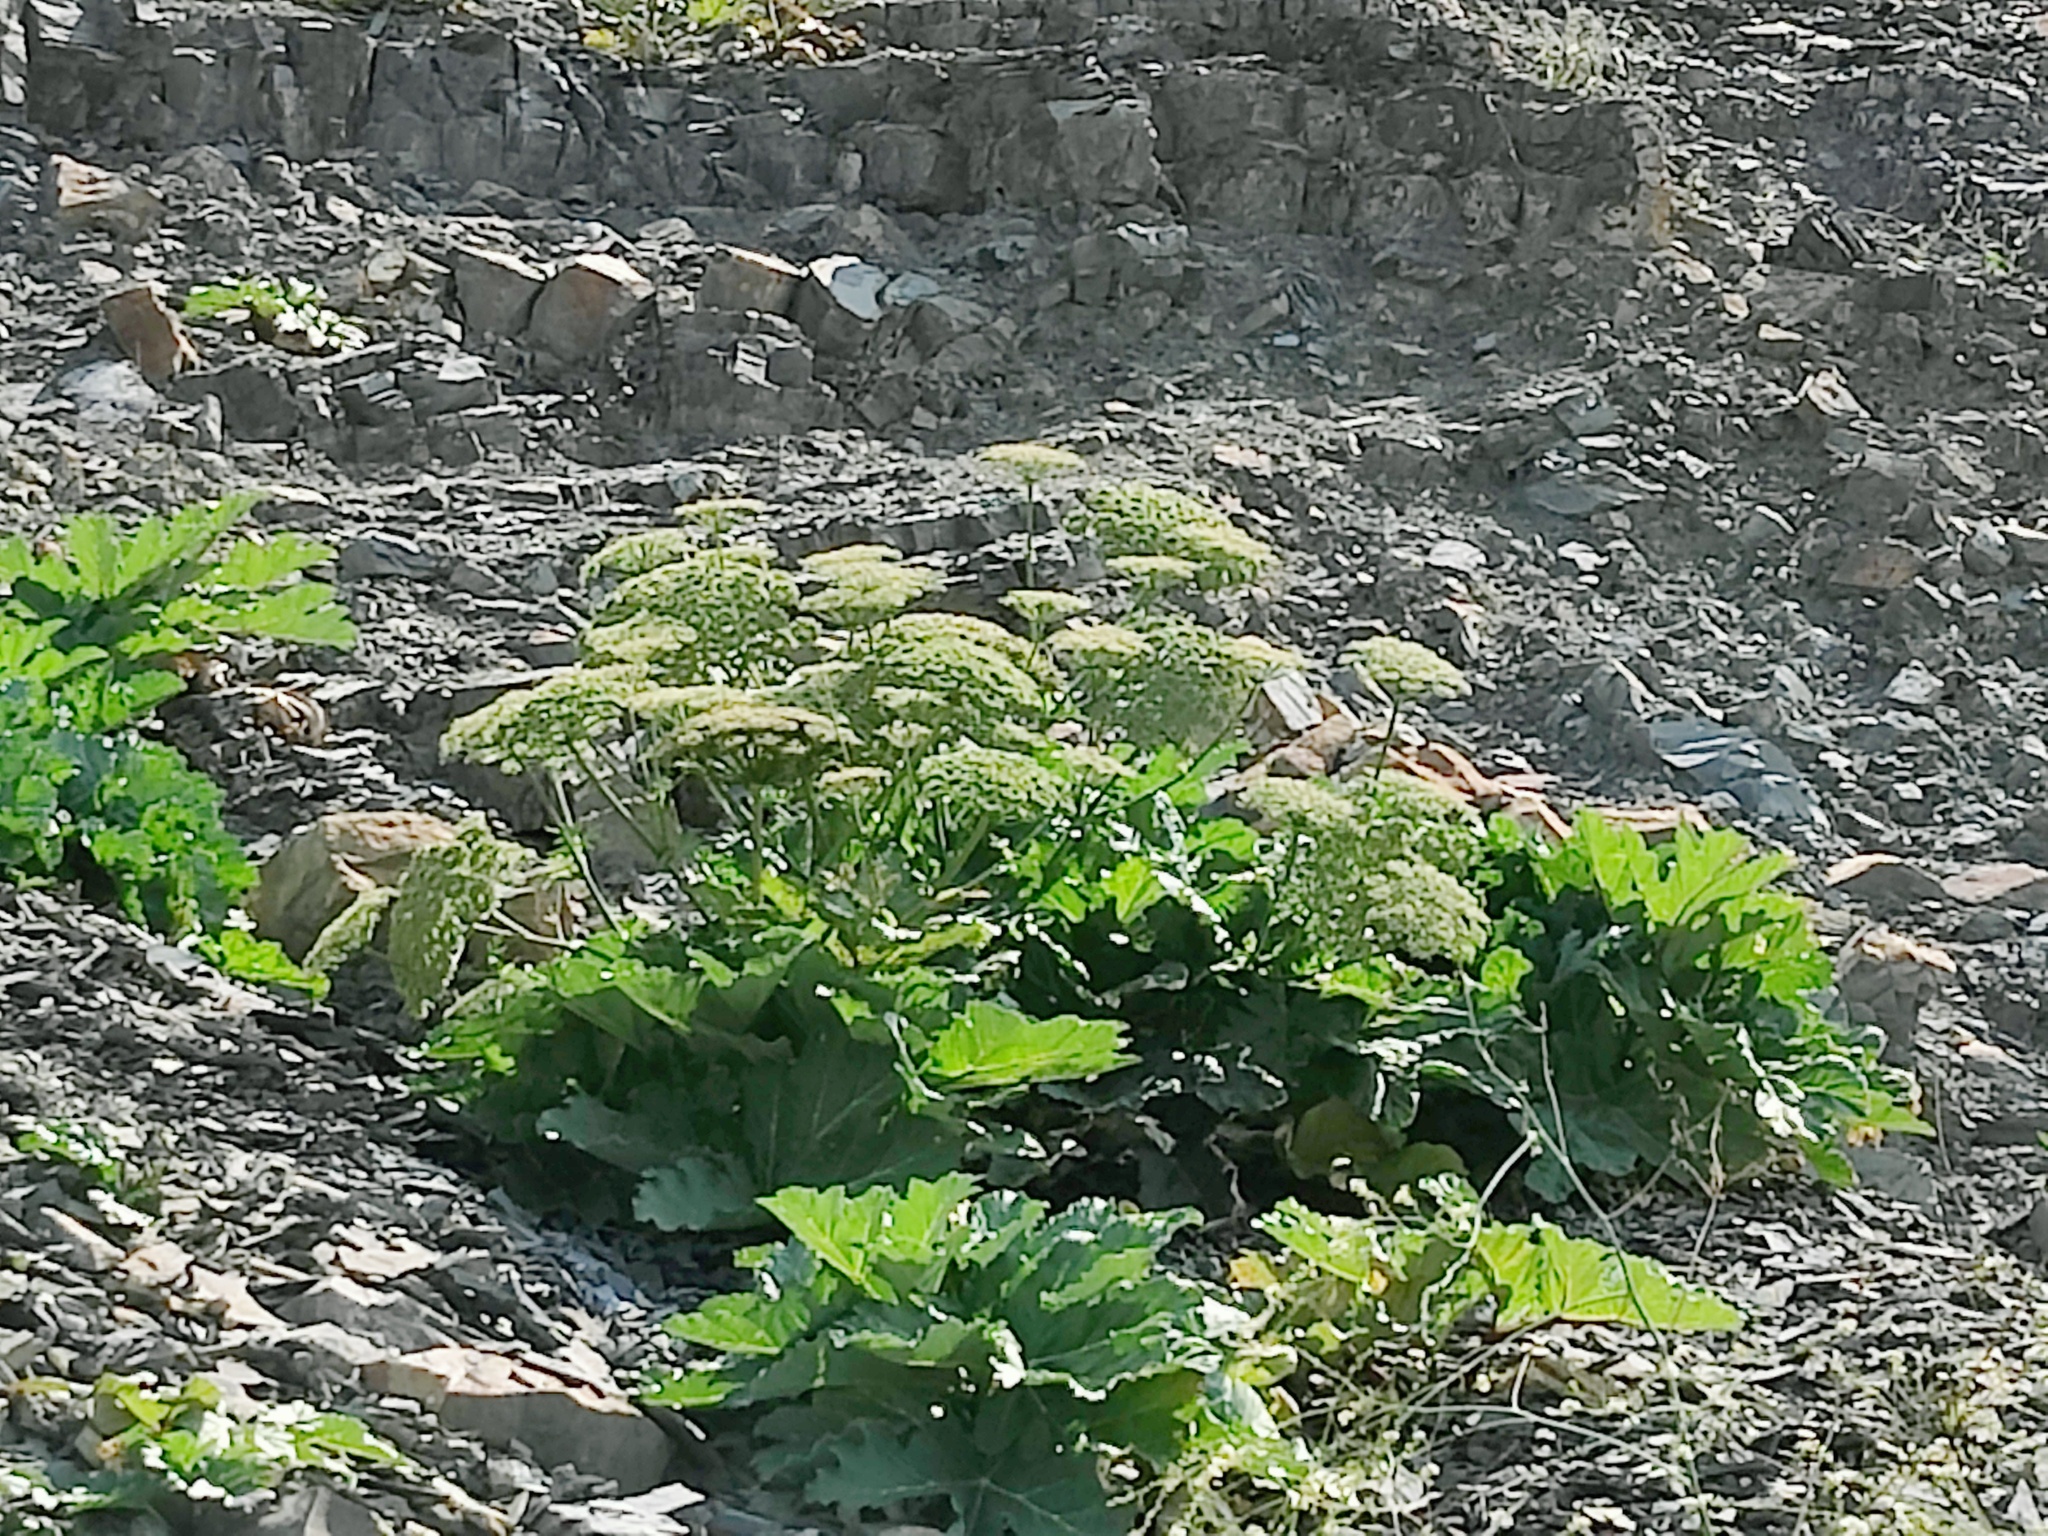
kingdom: Plantae
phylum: Tracheophyta
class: Magnoliopsida
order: Apiales
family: Apiaceae
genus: Heracleum
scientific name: Heracleum stevenii
